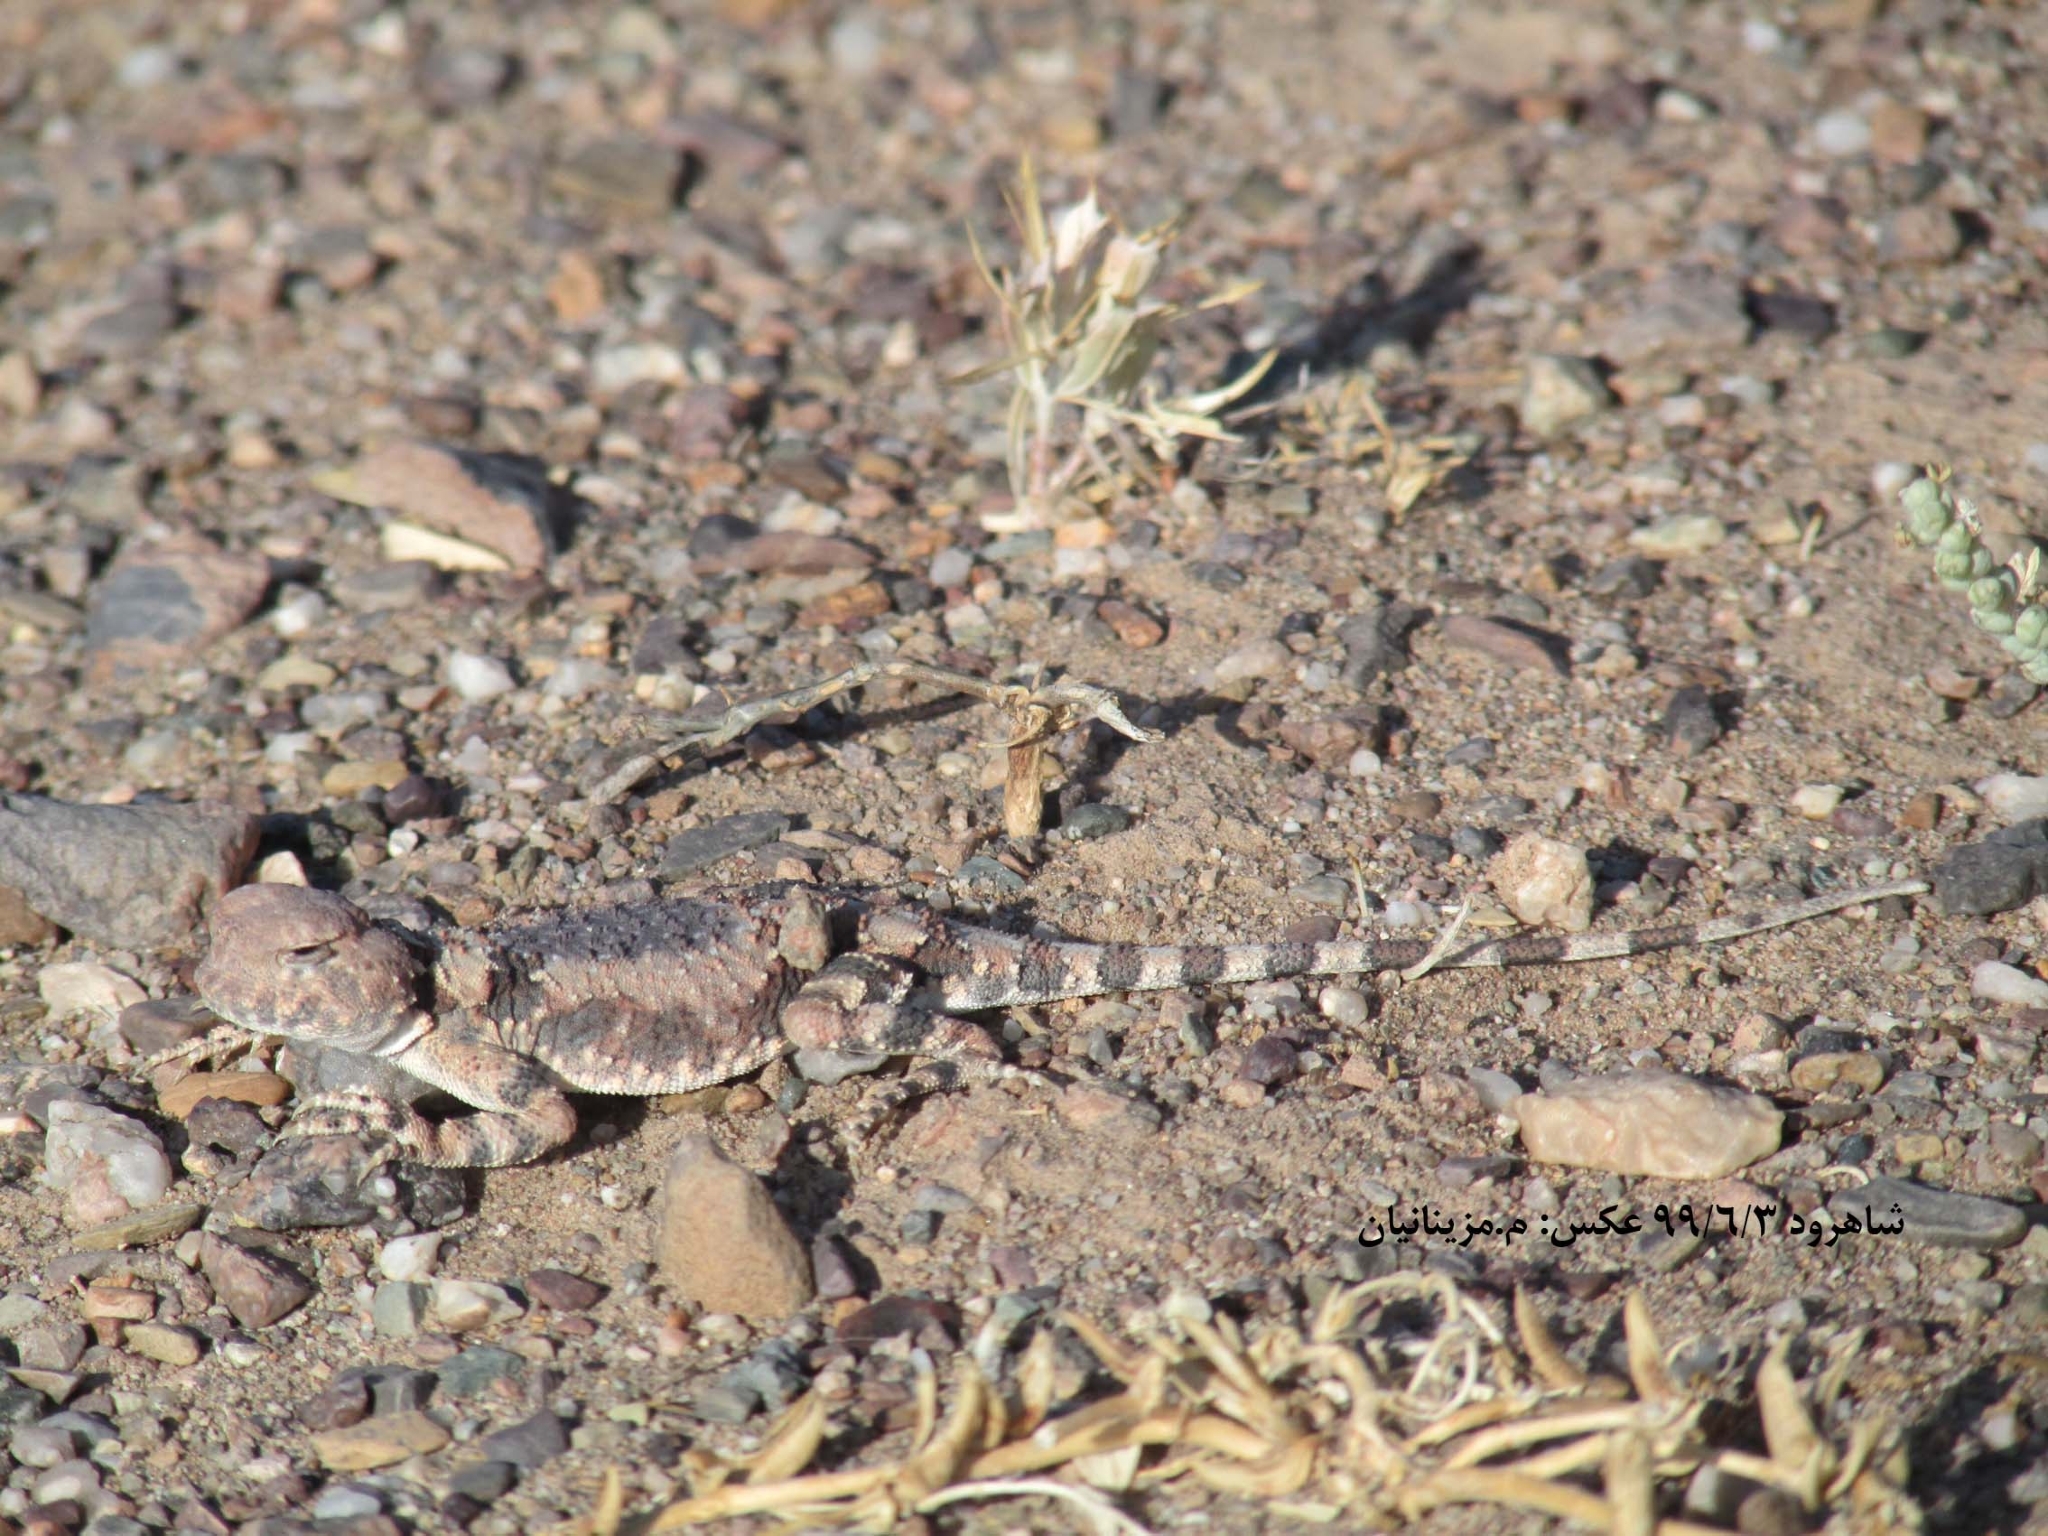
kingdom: Animalia
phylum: Chordata
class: Squamata
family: Agamidae
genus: Phrynocephalus
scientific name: Phrynocephalus scutellatus
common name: Gray toad head agama
